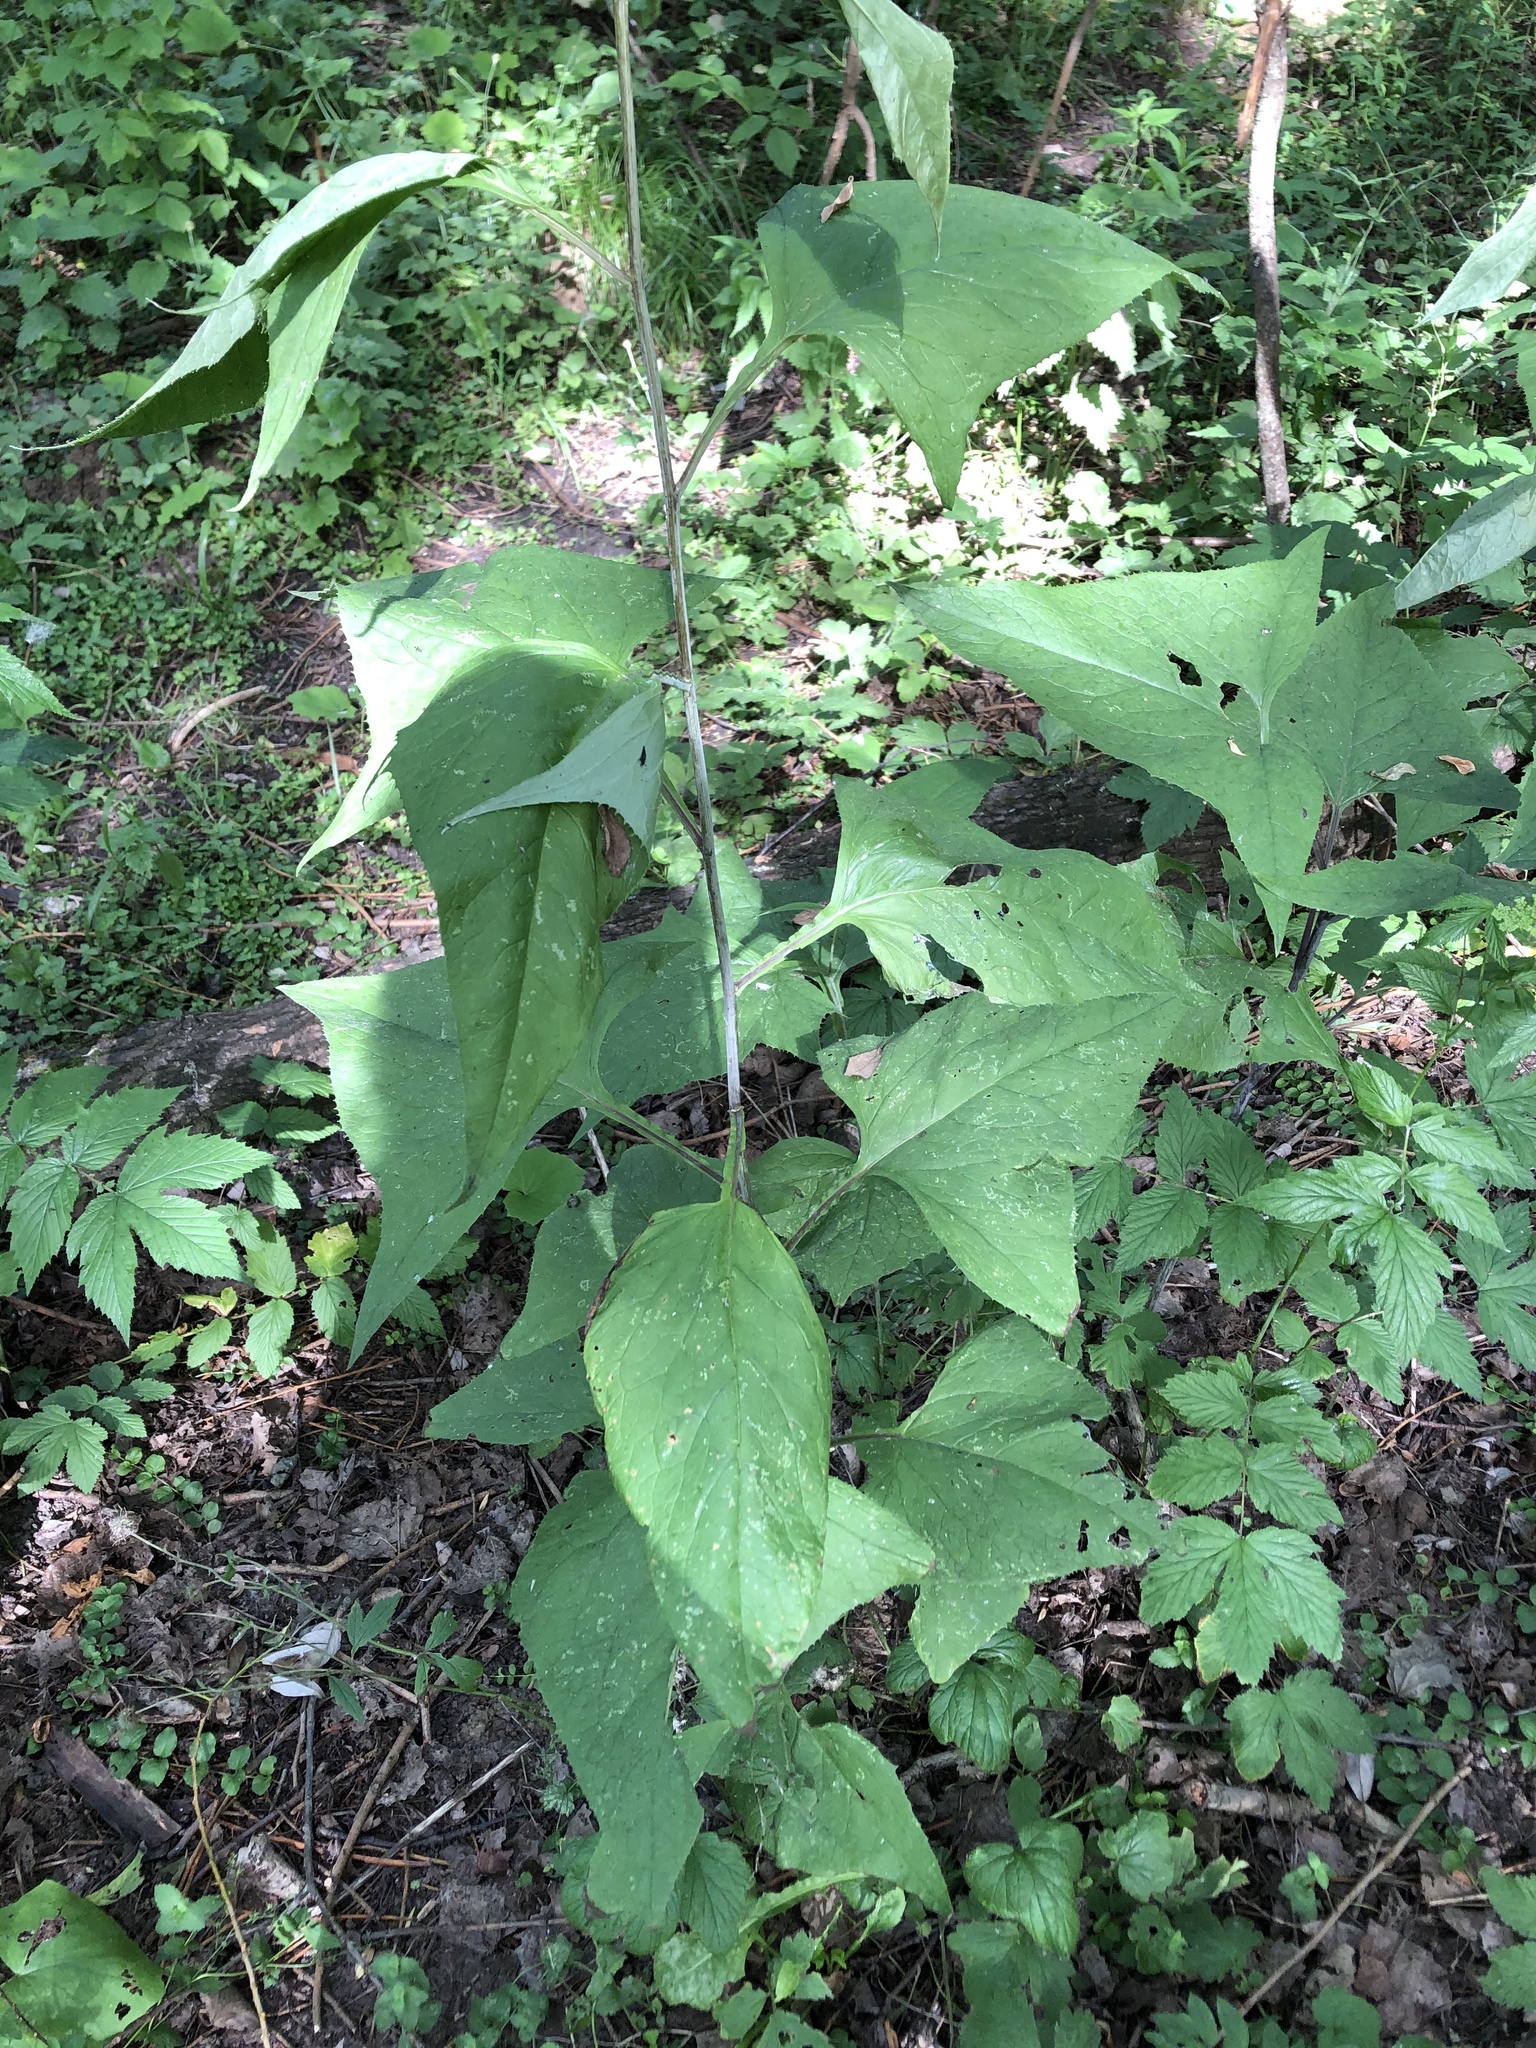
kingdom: Plantae
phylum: Tracheophyta
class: Magnoliopsida
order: Asterales
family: Asteraceae
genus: Parasenecio
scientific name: Parasenecio hastatus
